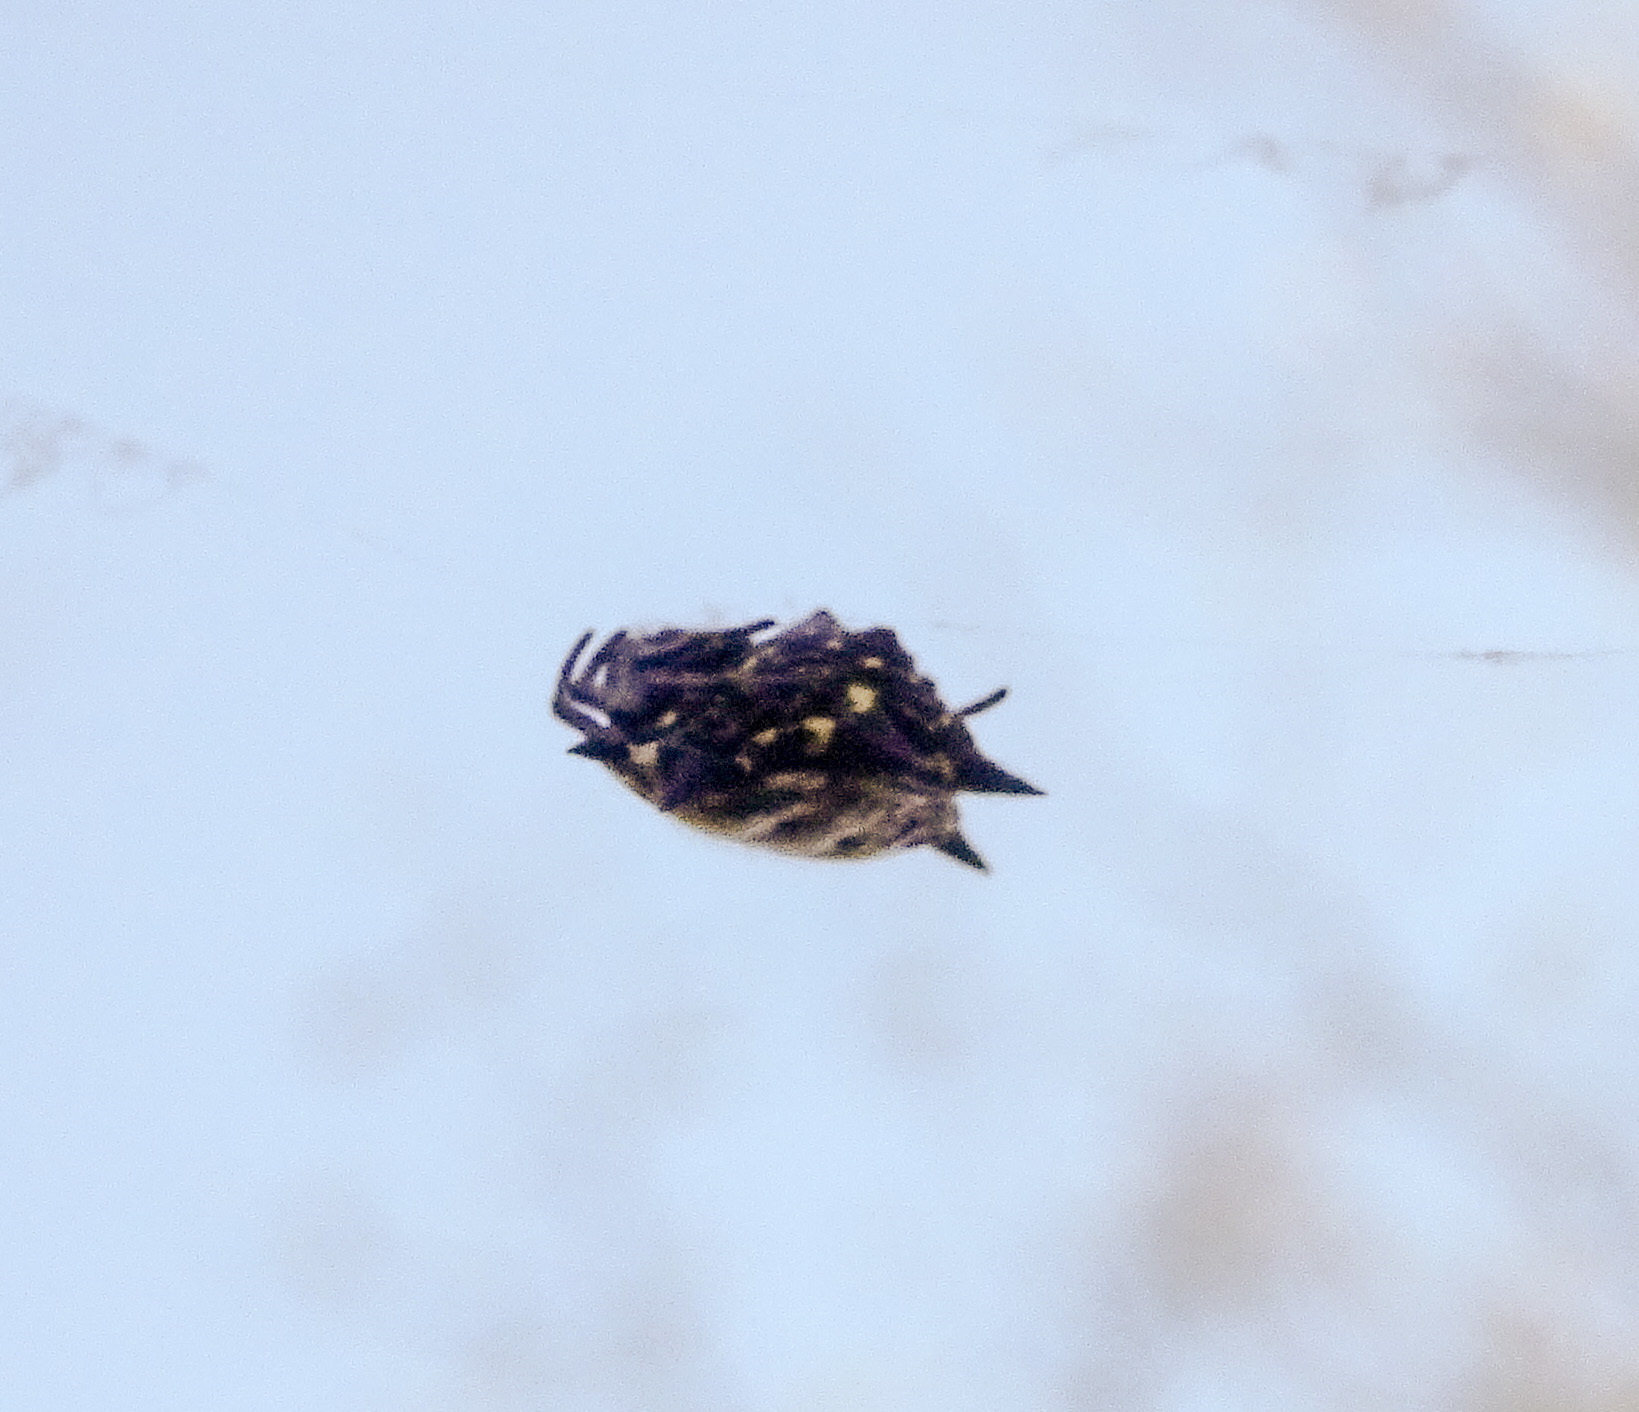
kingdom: Animalia
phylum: Arthropoda
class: Arachnida
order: Araneae
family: Araneidae
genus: Gasteracantha
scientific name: Gasteracantha cancriformis
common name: Orb weavers
